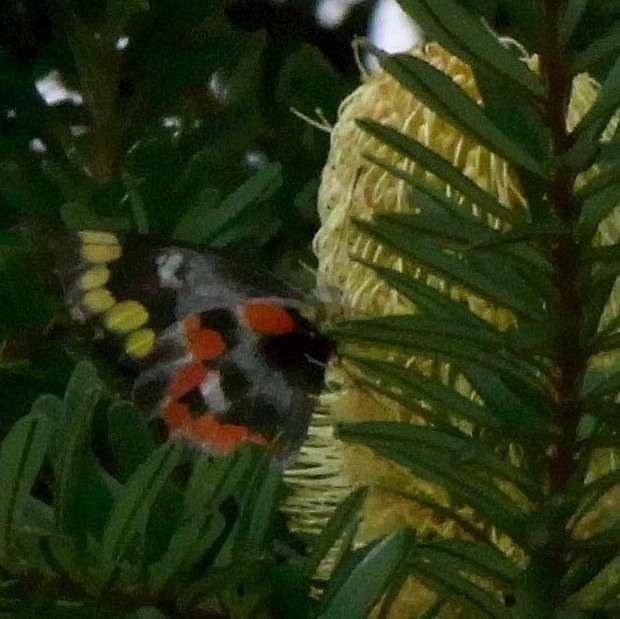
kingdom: Animalia
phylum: Arthropoda
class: Insecta
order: Lepidoptera
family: Pieridae
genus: Delias
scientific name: Delias harpalyce
